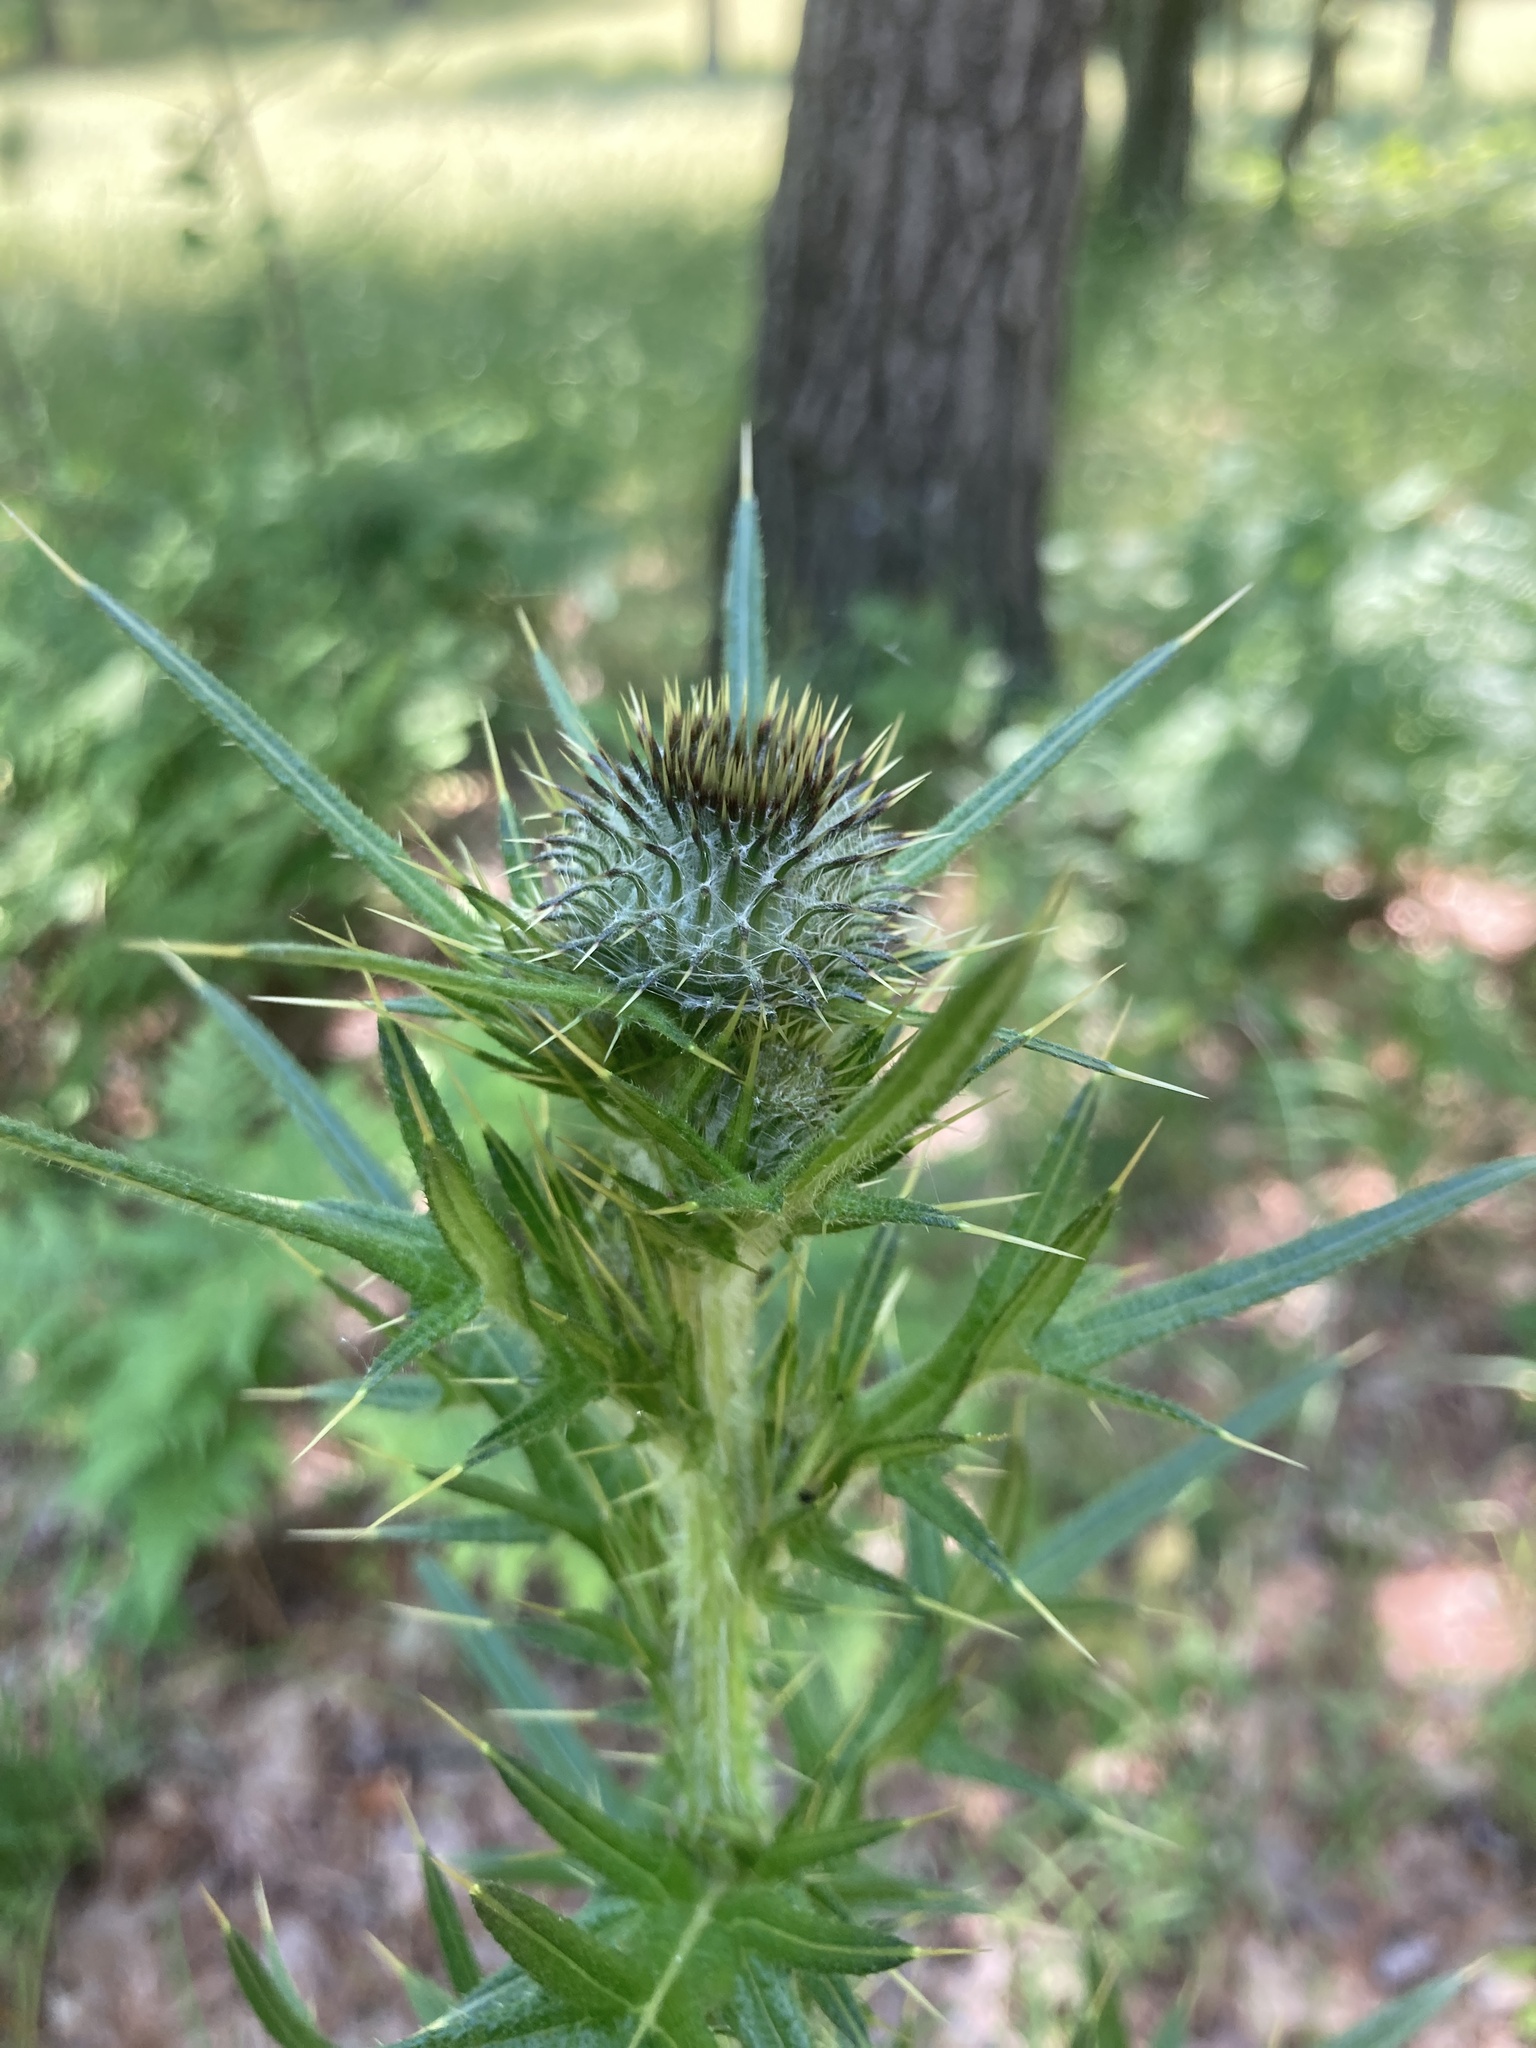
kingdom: Plantae
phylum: Tracheophyta
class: Magnoliopsida
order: Asterales
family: Asteraceae
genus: Cirsium
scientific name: Cirsium vulgare
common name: Bull thistle
